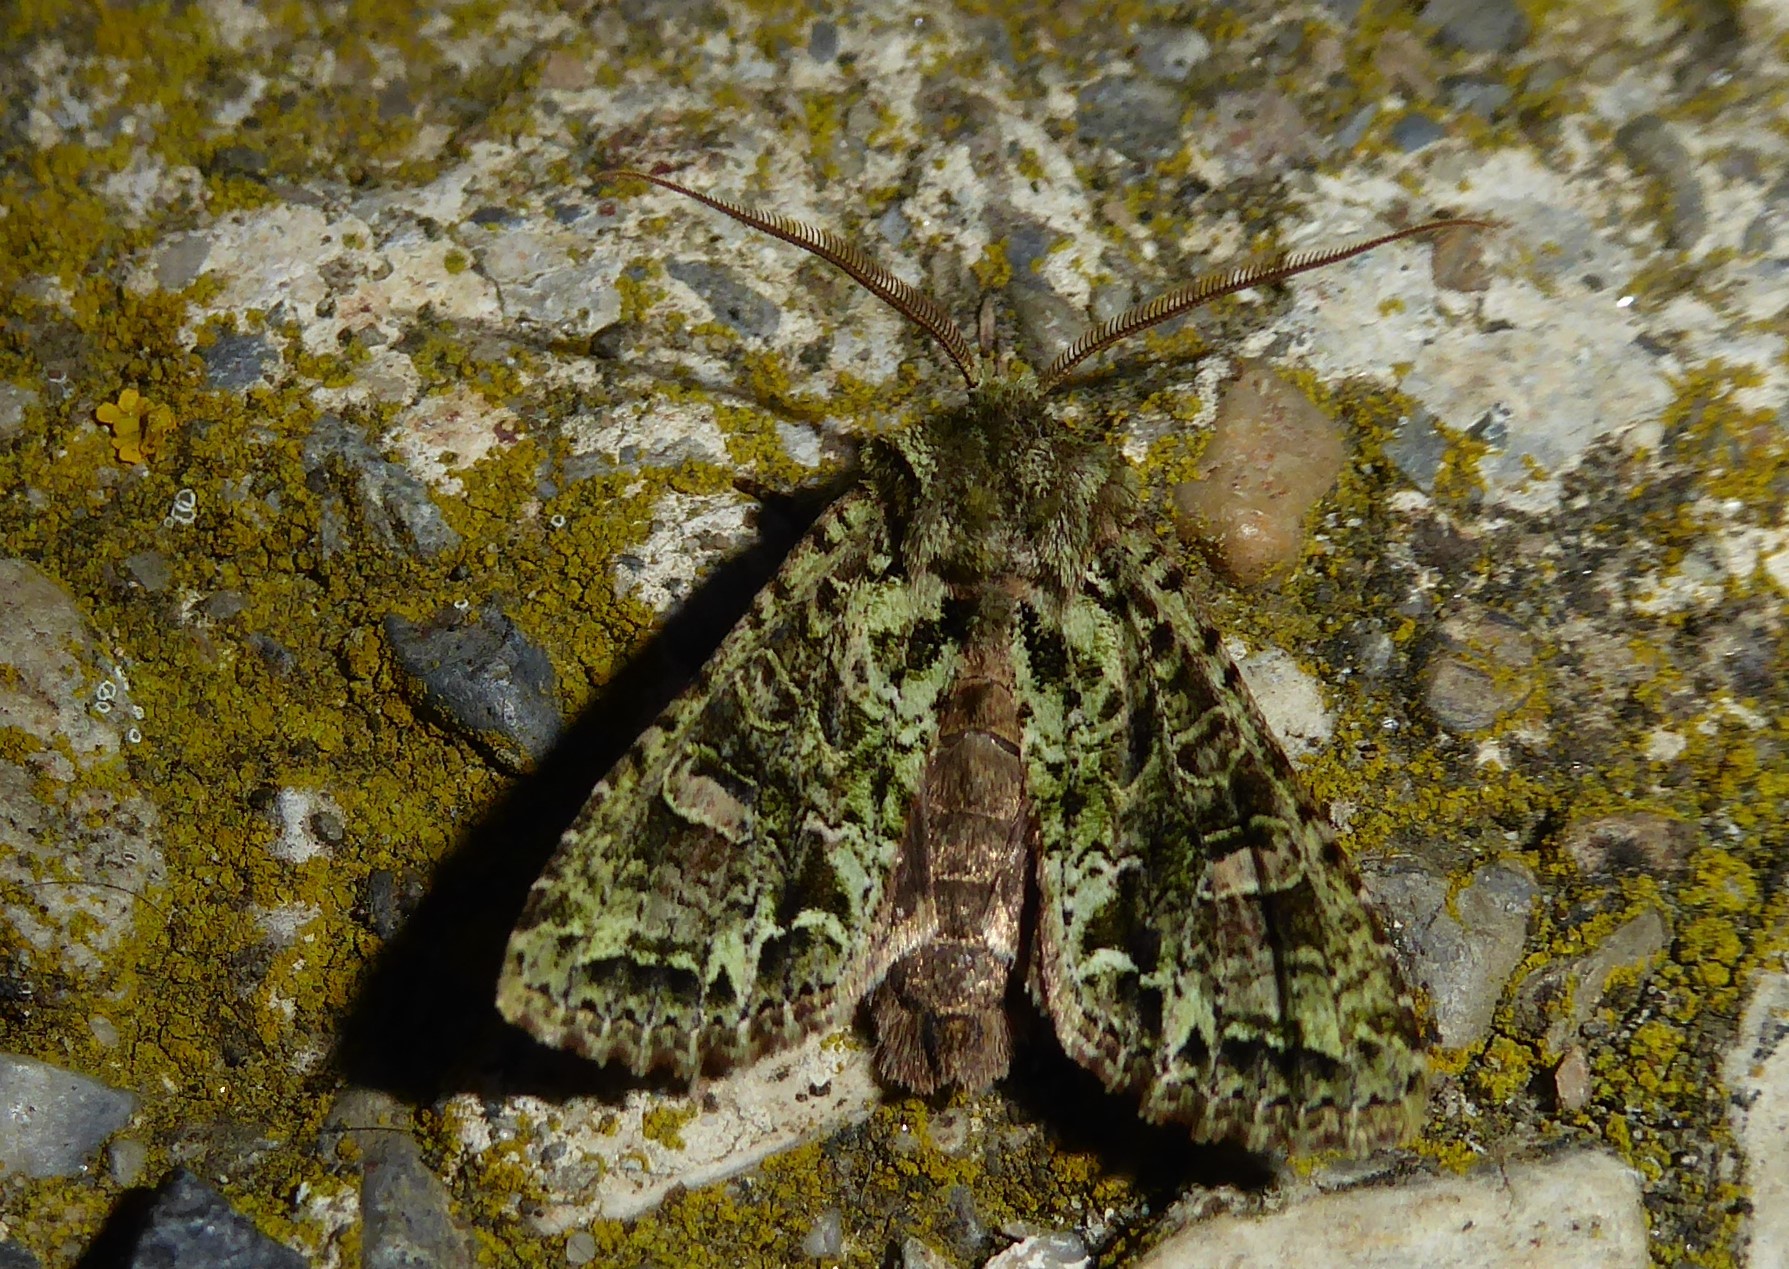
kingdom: Animalia
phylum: Arthropoda
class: Insecta
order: Lepidoptera
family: Noctuidae
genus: Ichneutica
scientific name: Ichneutica
